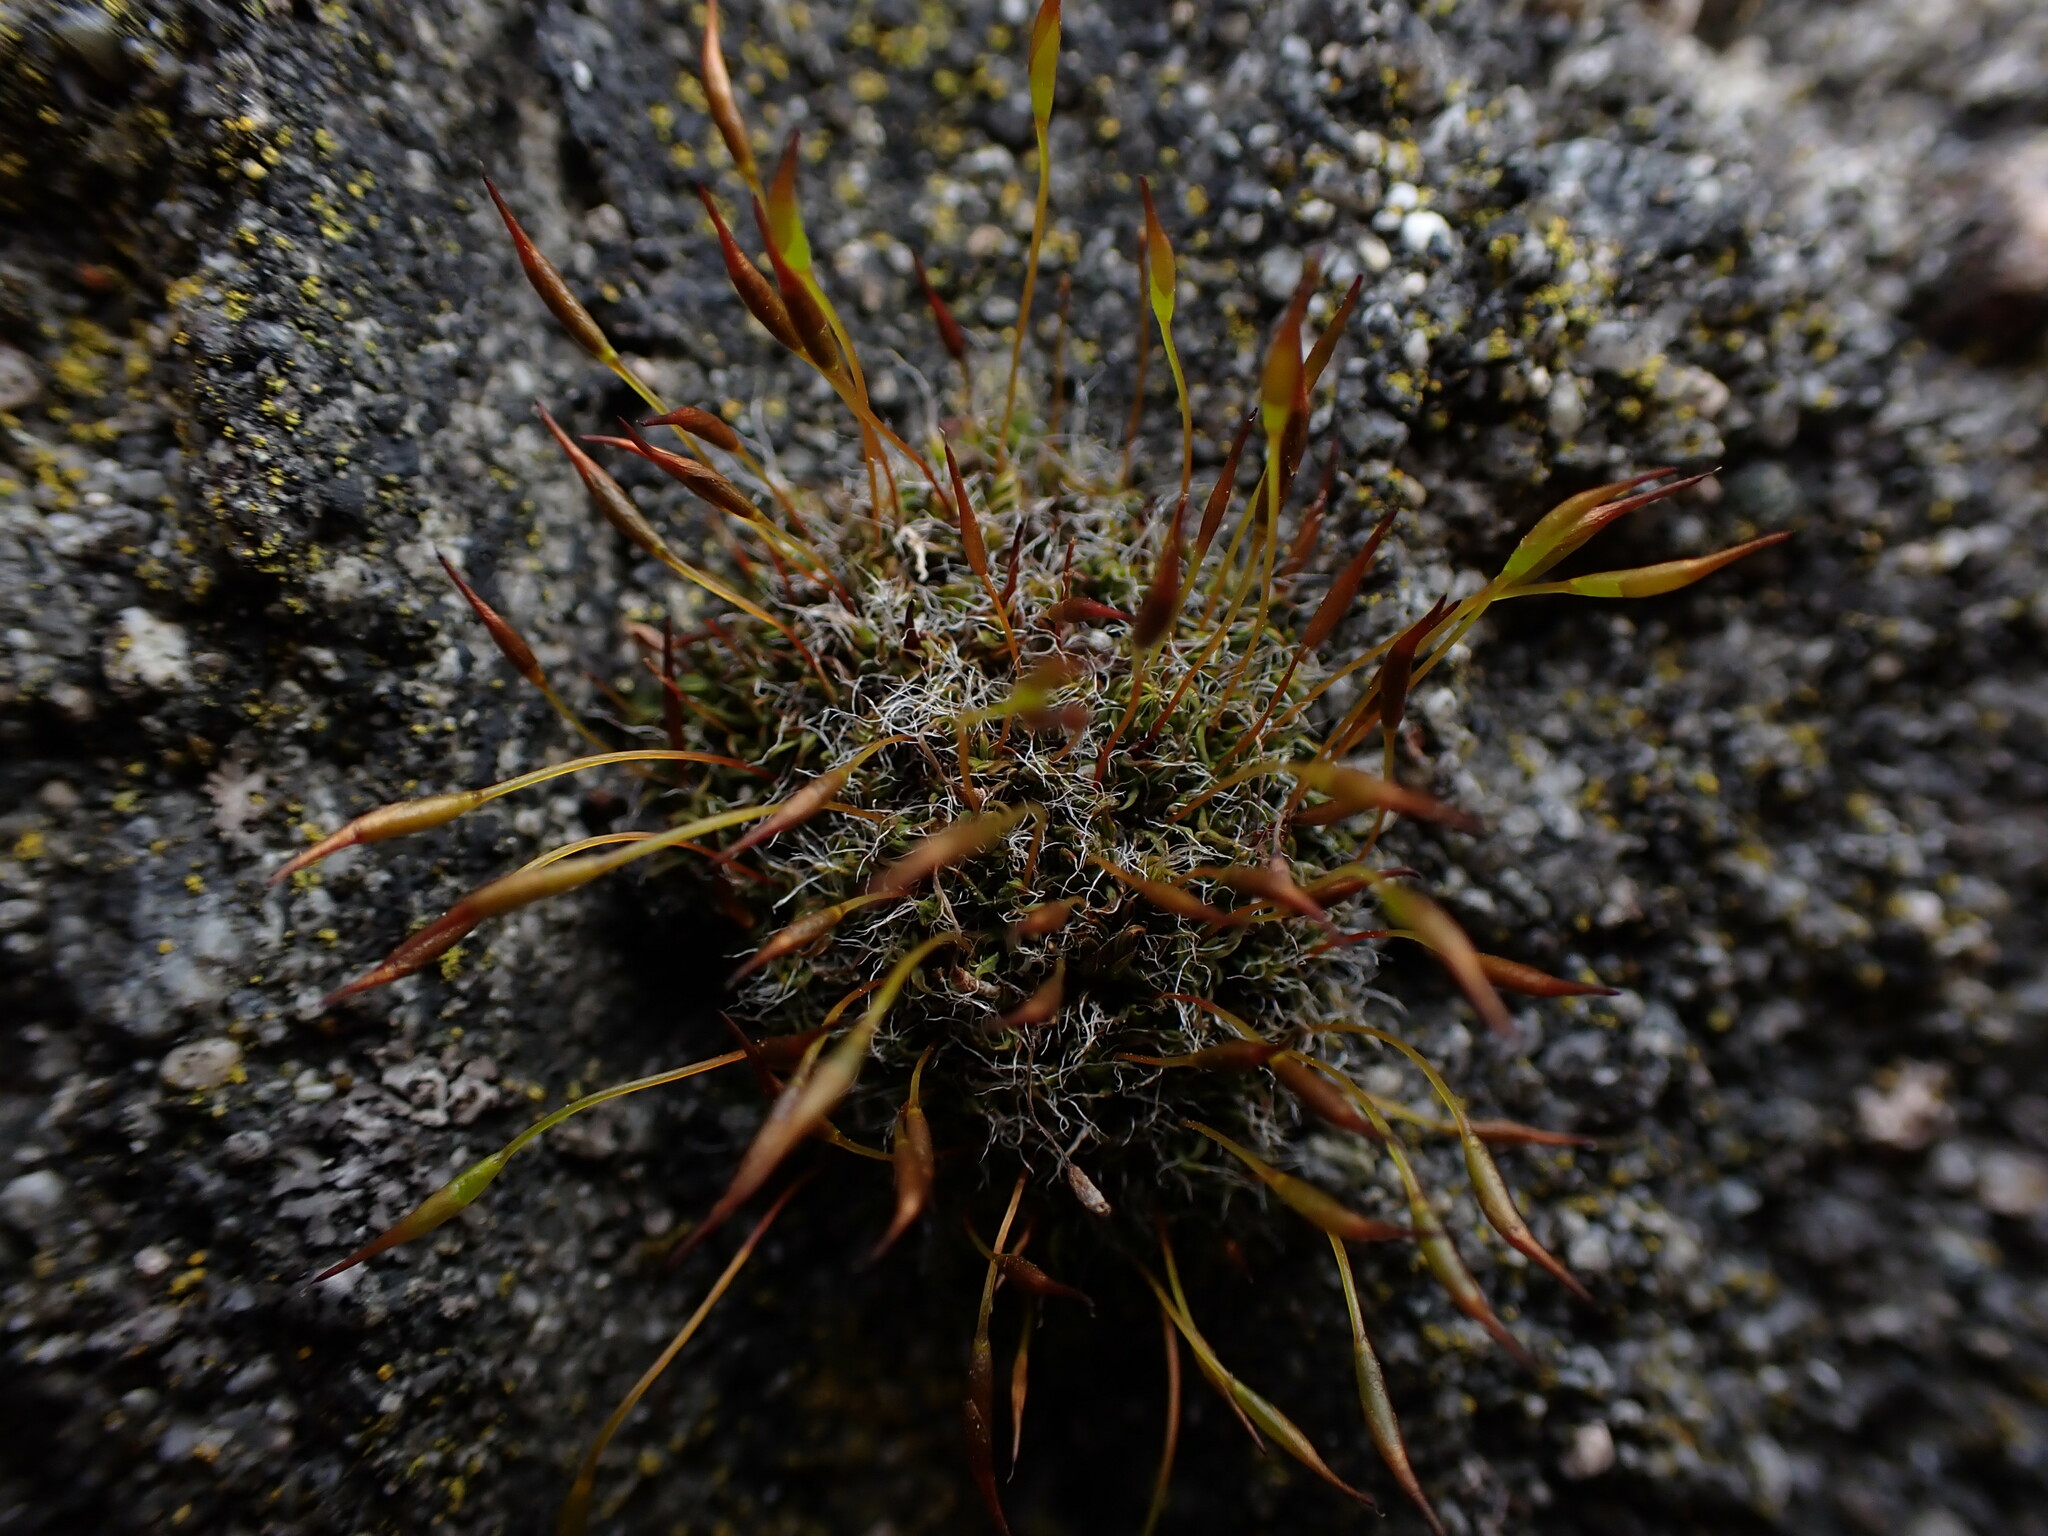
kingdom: Plantae
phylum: Bryophyta
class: Bryopsida
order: Pottiales
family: Pottiaceae
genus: Tortula
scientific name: Tortula muralis
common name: Wall screw-moss
